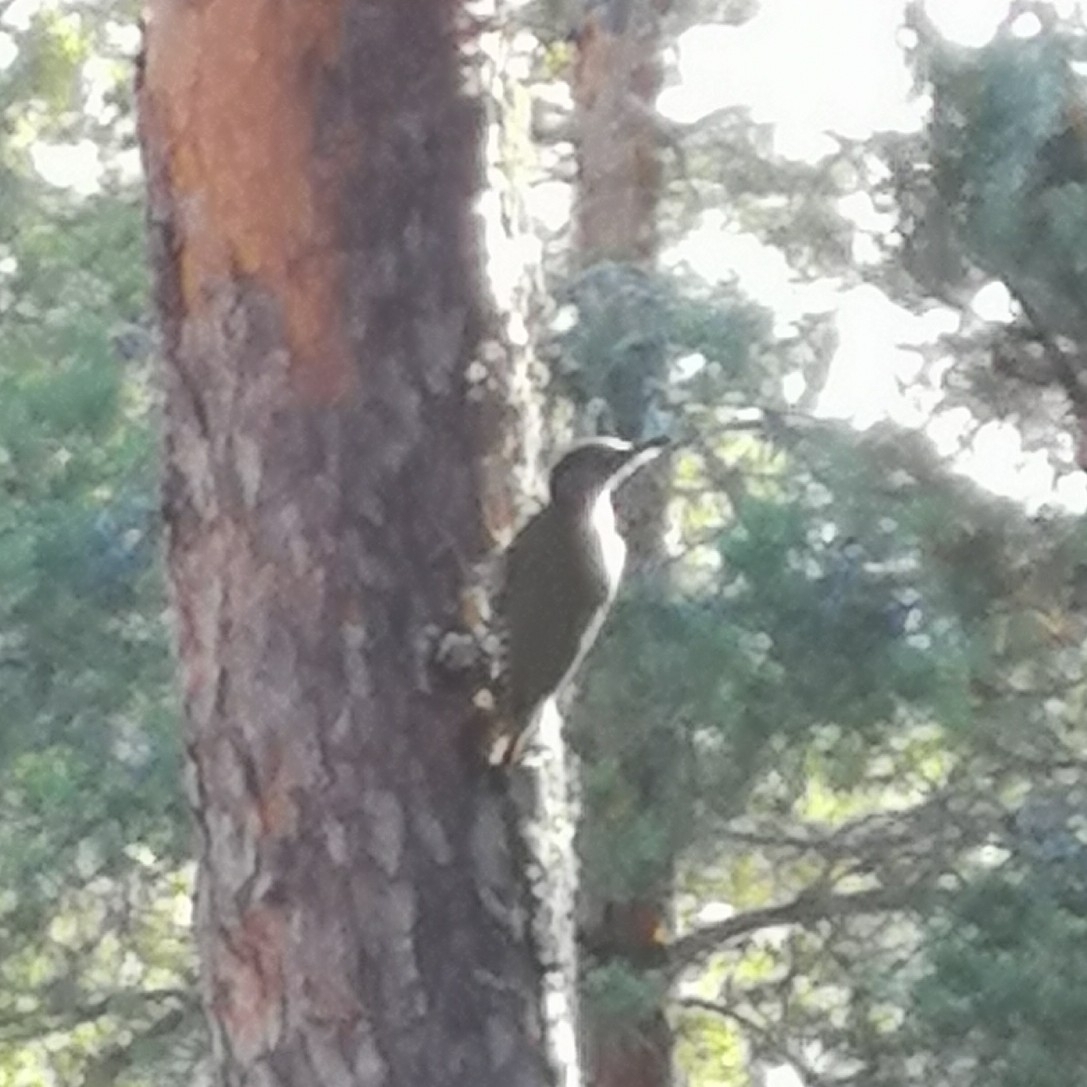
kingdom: Animalia
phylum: Chordata
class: Aves
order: Piciformes
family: Picidae
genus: Picus
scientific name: Picus viridis
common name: European green woodpecker
